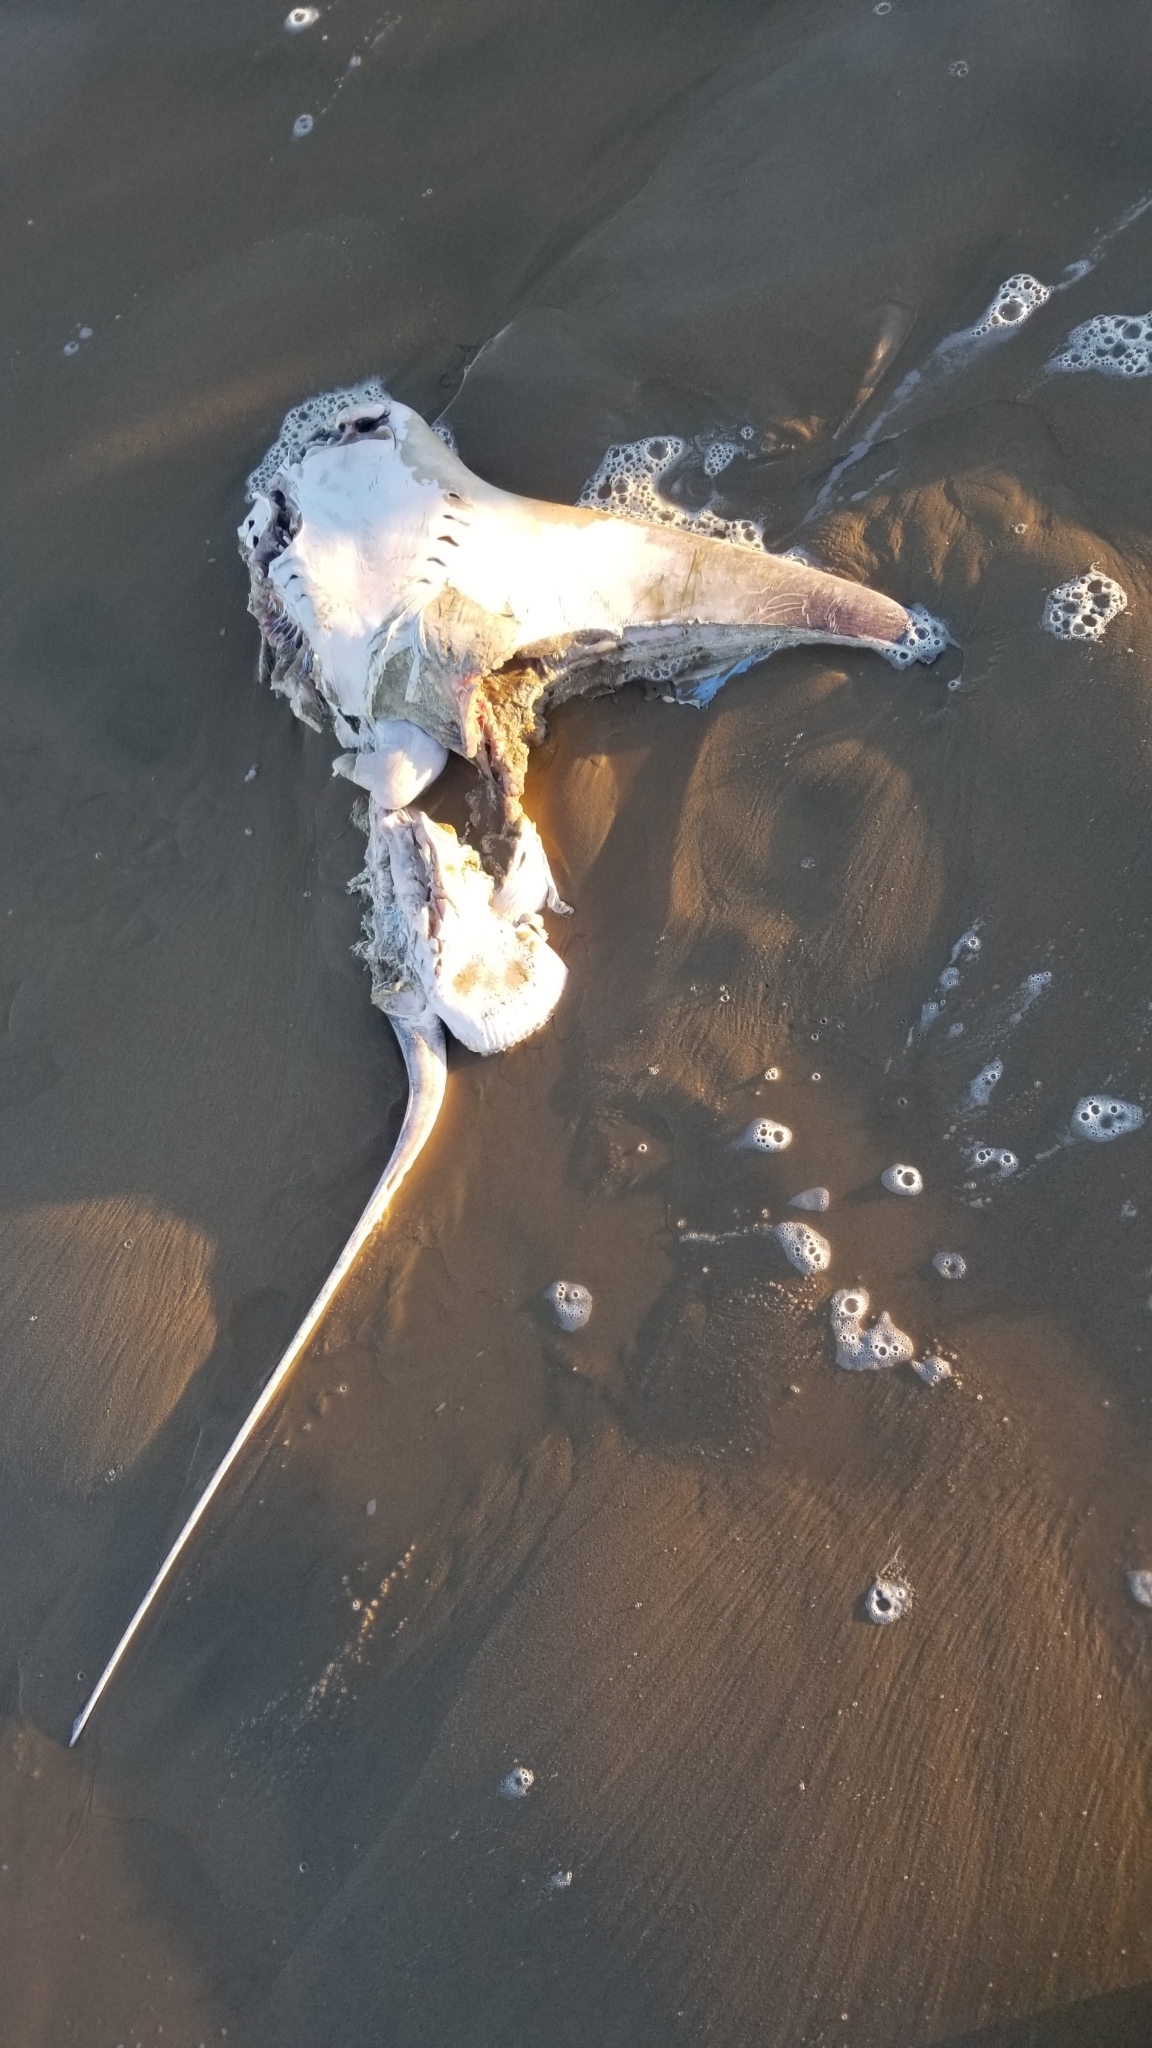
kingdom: Animalia
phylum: Chordata
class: Elasmobranchii
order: Myliobatiformes
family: Myliobatidae
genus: Myliobatis
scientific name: Myliobatis californica
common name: Bat ray
